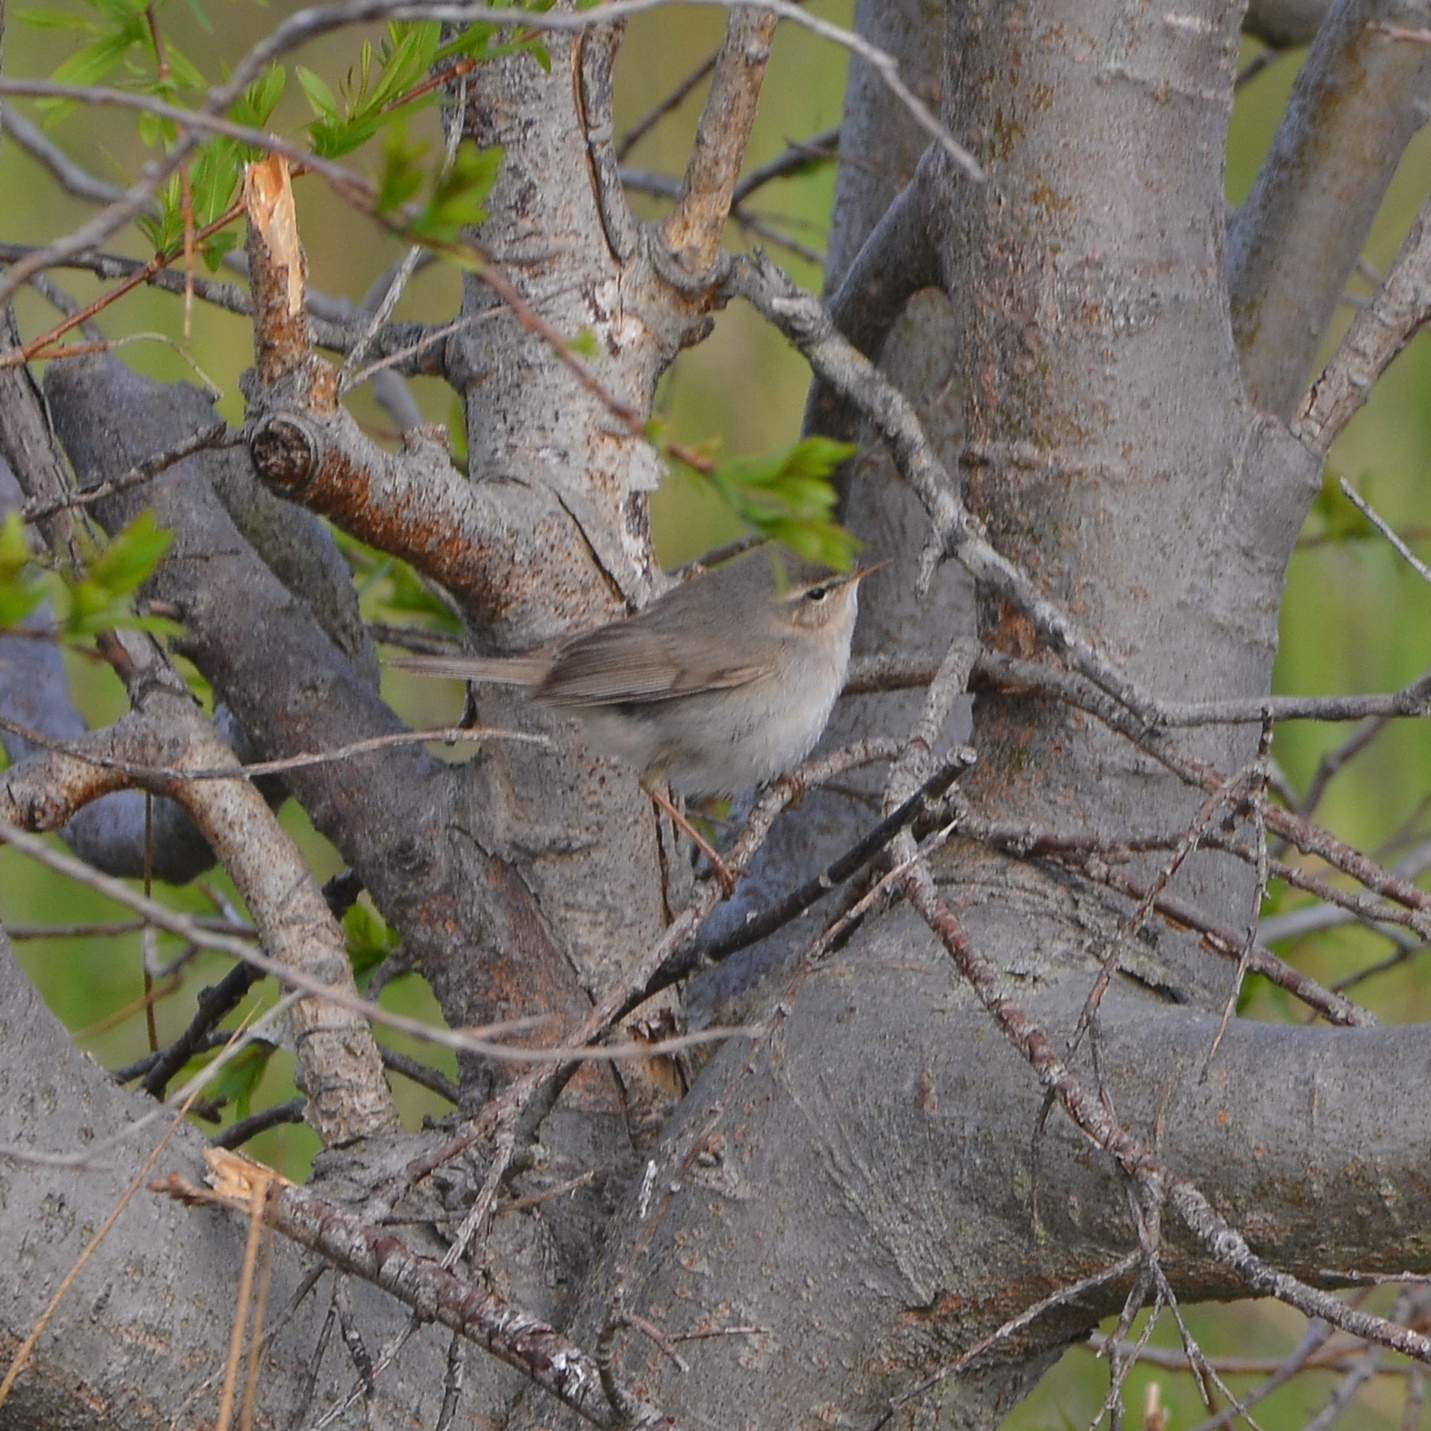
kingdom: Animalia
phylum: Chordata
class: Aves
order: Passeriformes
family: Phylloscopidae
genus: Phylloscopus
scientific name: Phylloscopus fuscatus
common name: Dusky warbler
